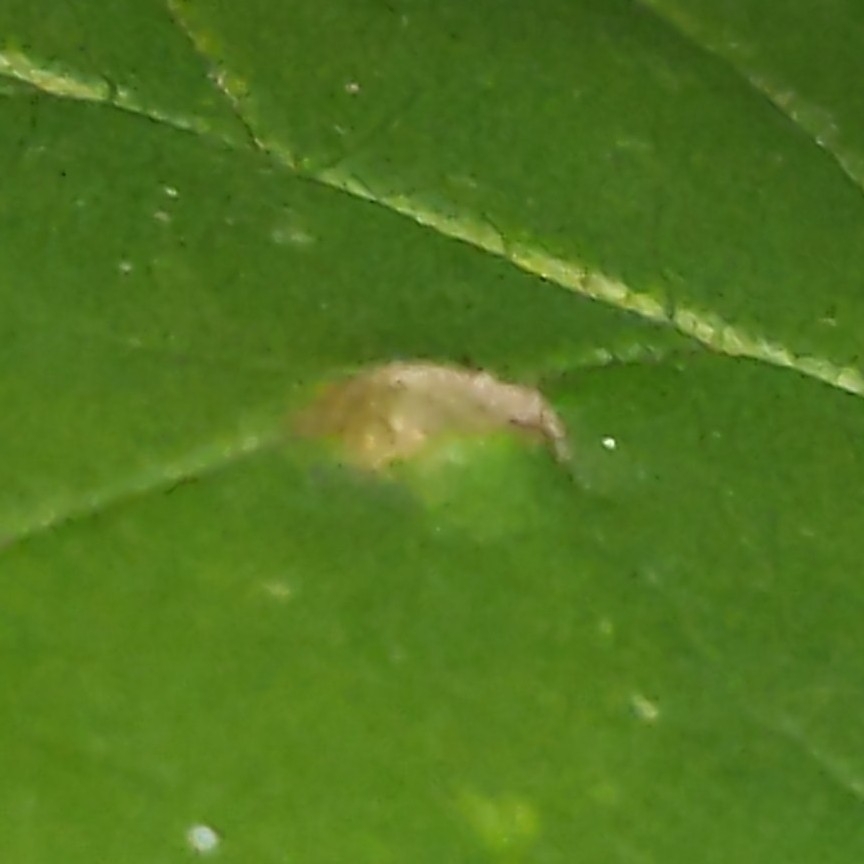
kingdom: Animalia
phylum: Arthropoda
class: Arachnida
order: Trombidiformes
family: Eriophyidae
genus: Aceria
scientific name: Aceria fraxinicola
